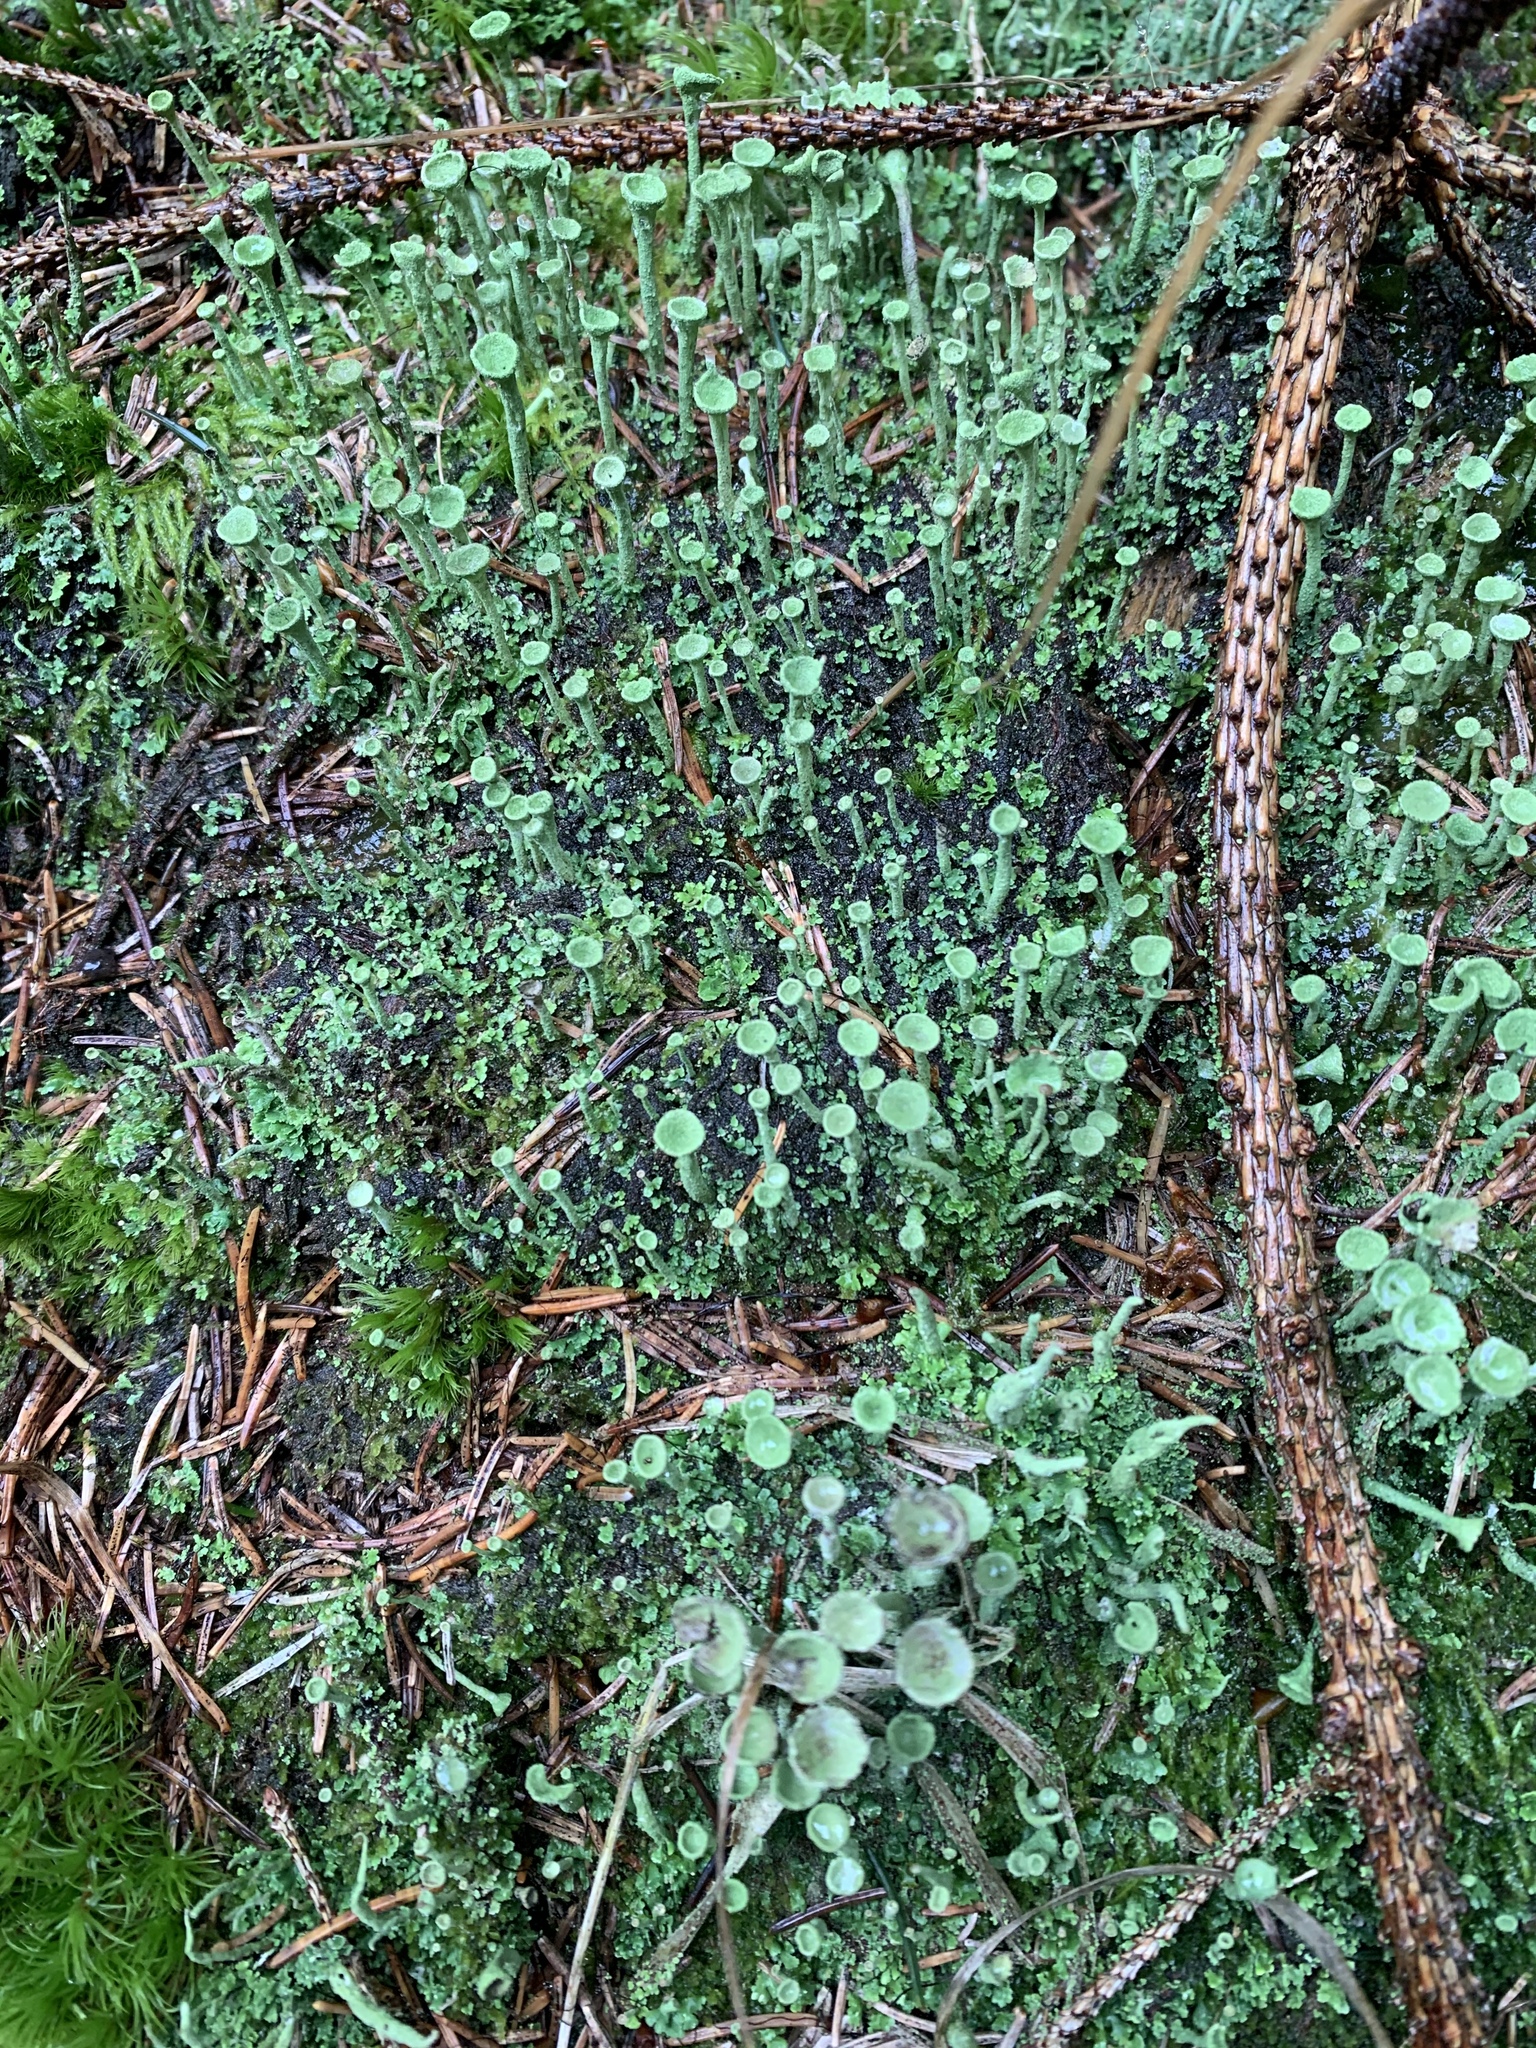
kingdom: Fungi
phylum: Ascomycota
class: Lecanoromycetes
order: Lecanorales
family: Cladoniaceae
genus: Cladonia
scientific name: Cladonia fimbriata
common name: Powdered trumpet lichen
